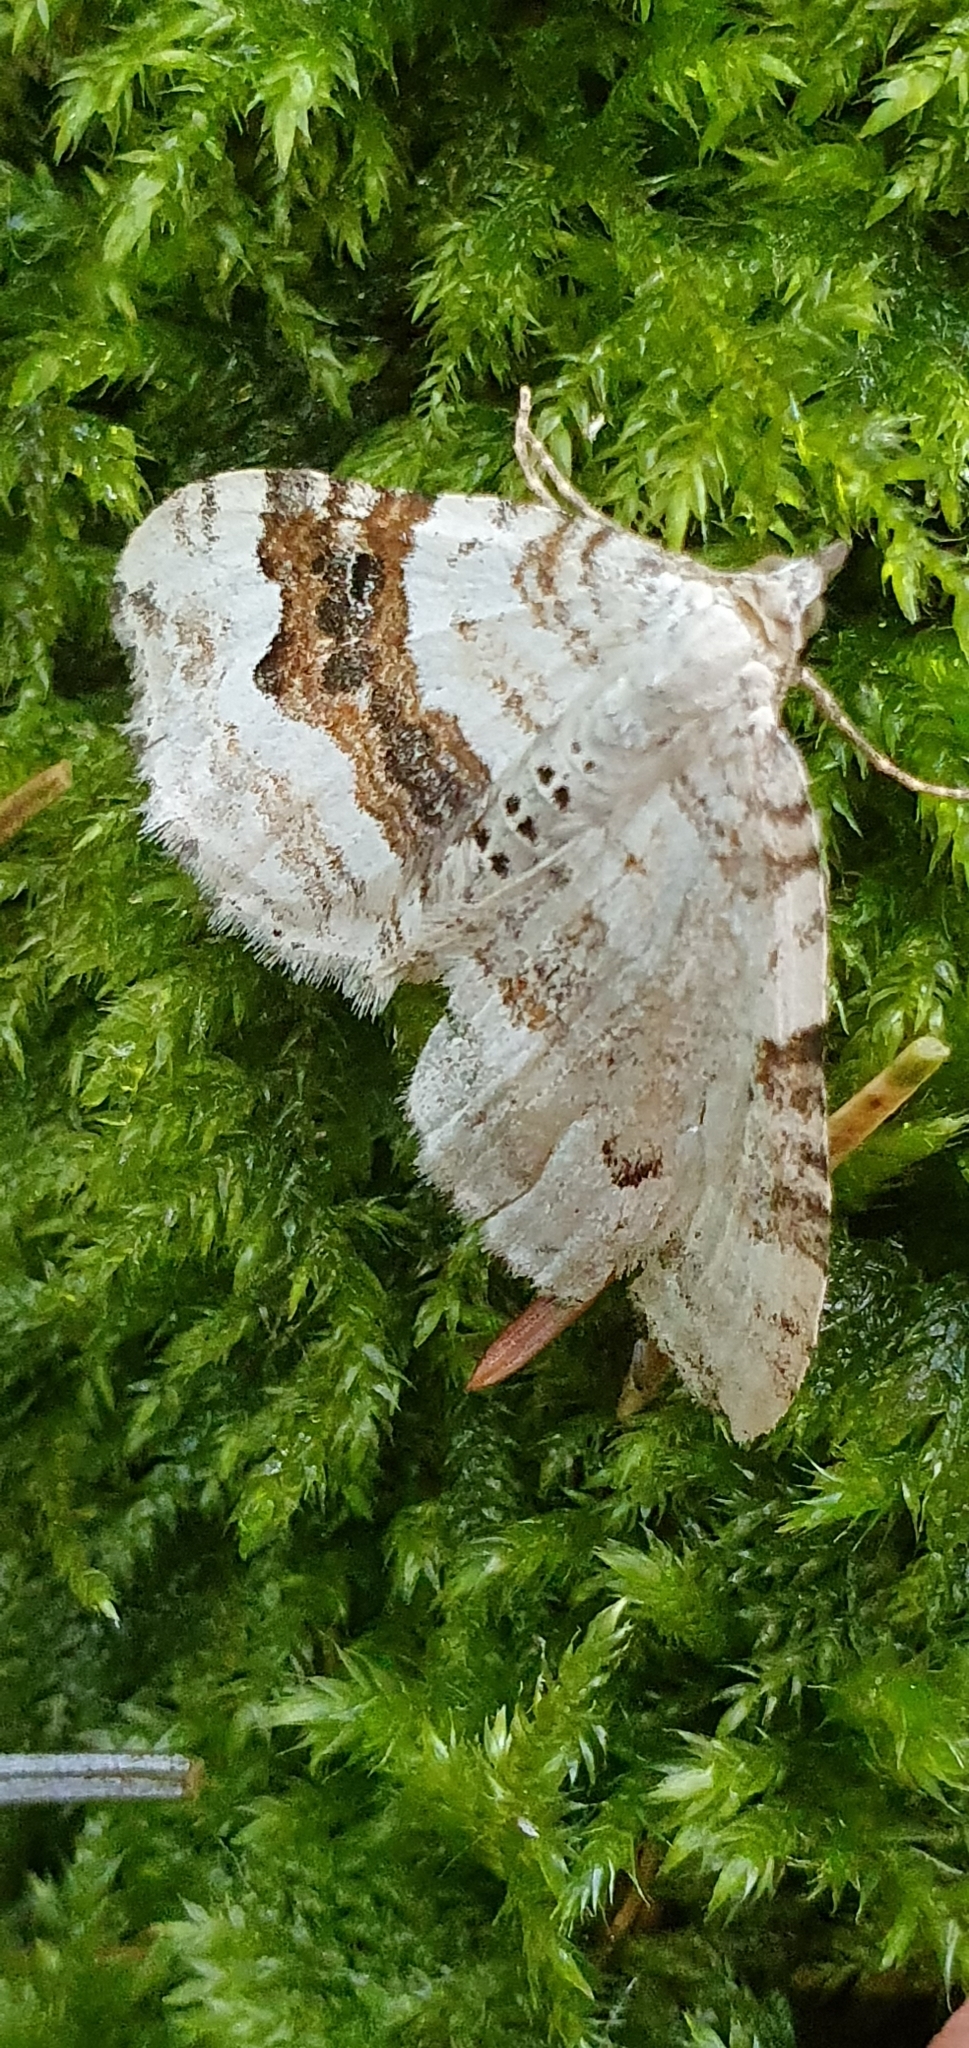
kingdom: Animalia
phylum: Arthropoda
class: Insecta
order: Lepidoptera
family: Geometridae
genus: Xanthorhoe
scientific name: Xanthorhoe montanata
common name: Silver-ground carpet
